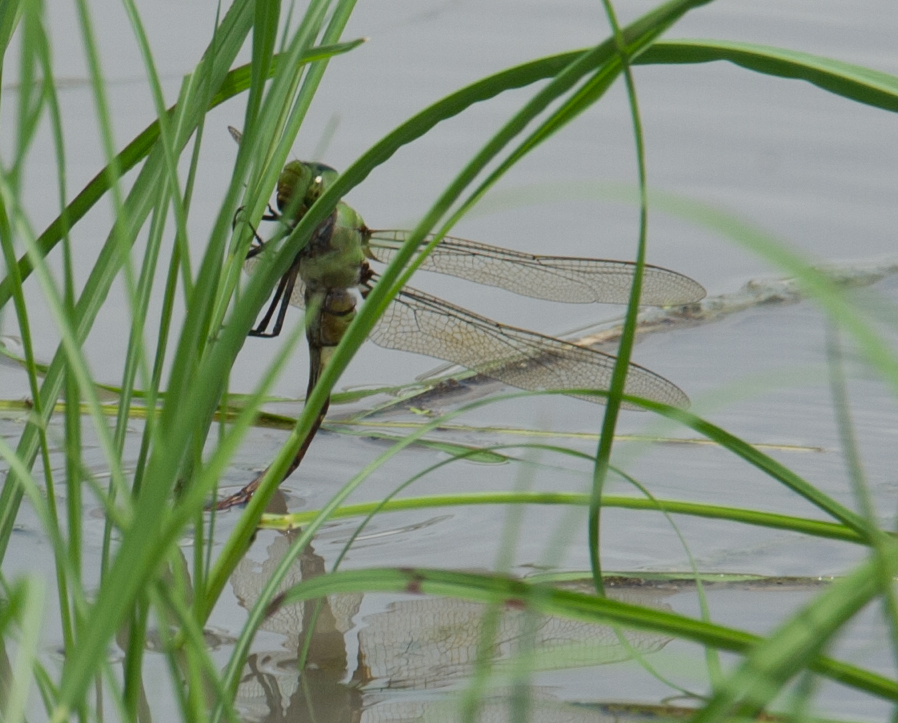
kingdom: Animalia
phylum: Arthropoda
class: Insecta
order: Odonata
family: Aeshnidae
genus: Anax
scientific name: Anax tristis
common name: Black emperor
